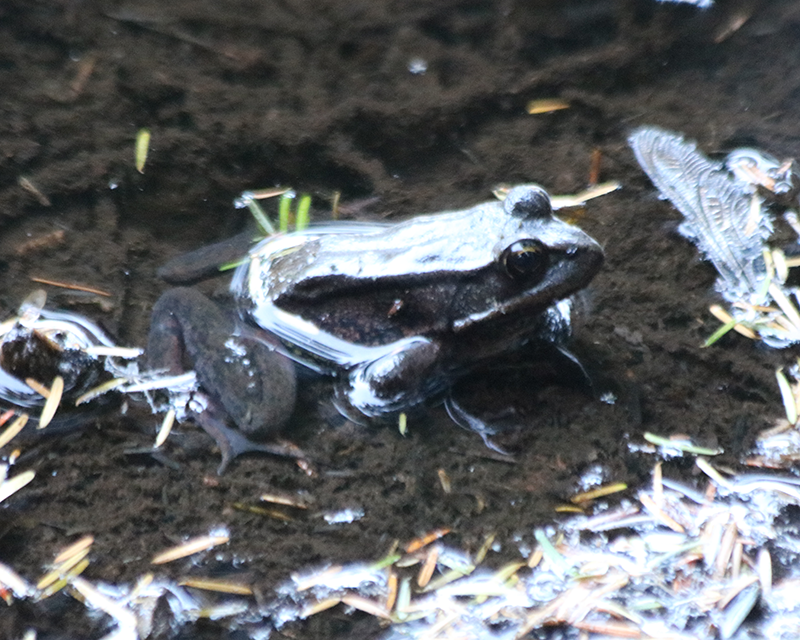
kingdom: Animalia
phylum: Chordata
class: Amphibia
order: Anura
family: Ranidae
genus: Rana
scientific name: Rana aurora
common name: Red-legged frog
